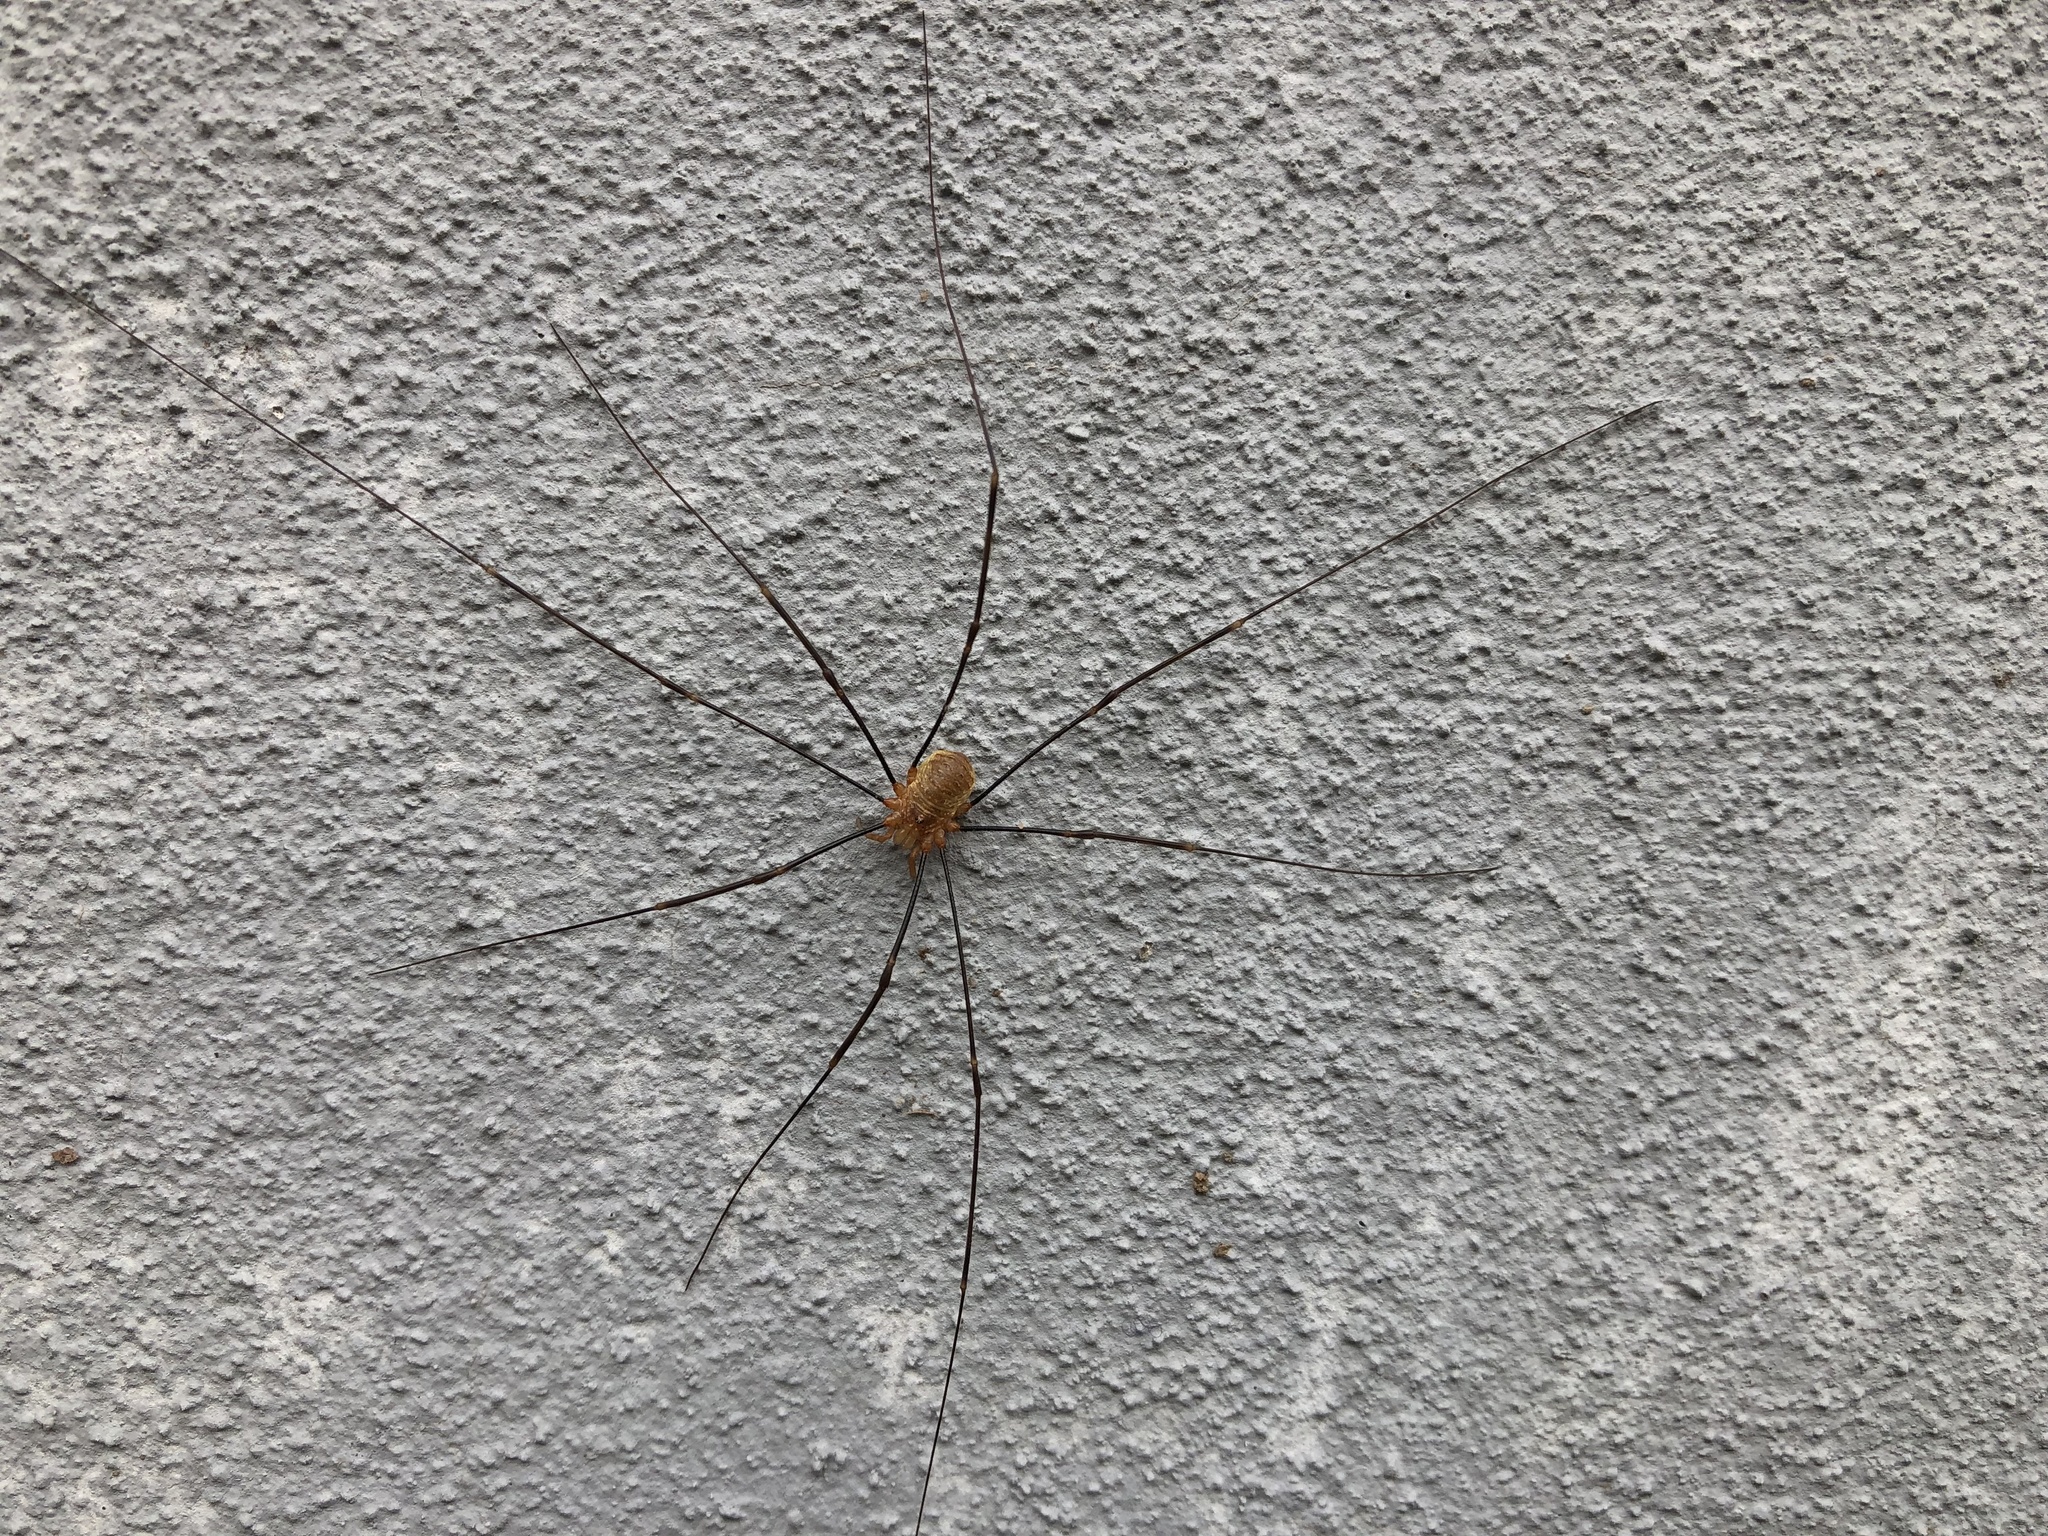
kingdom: Animalia
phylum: Arthropoda
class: Arachnida
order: Opiliones
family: Phalangiidae
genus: Opilio
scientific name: Opilio canestrinii
